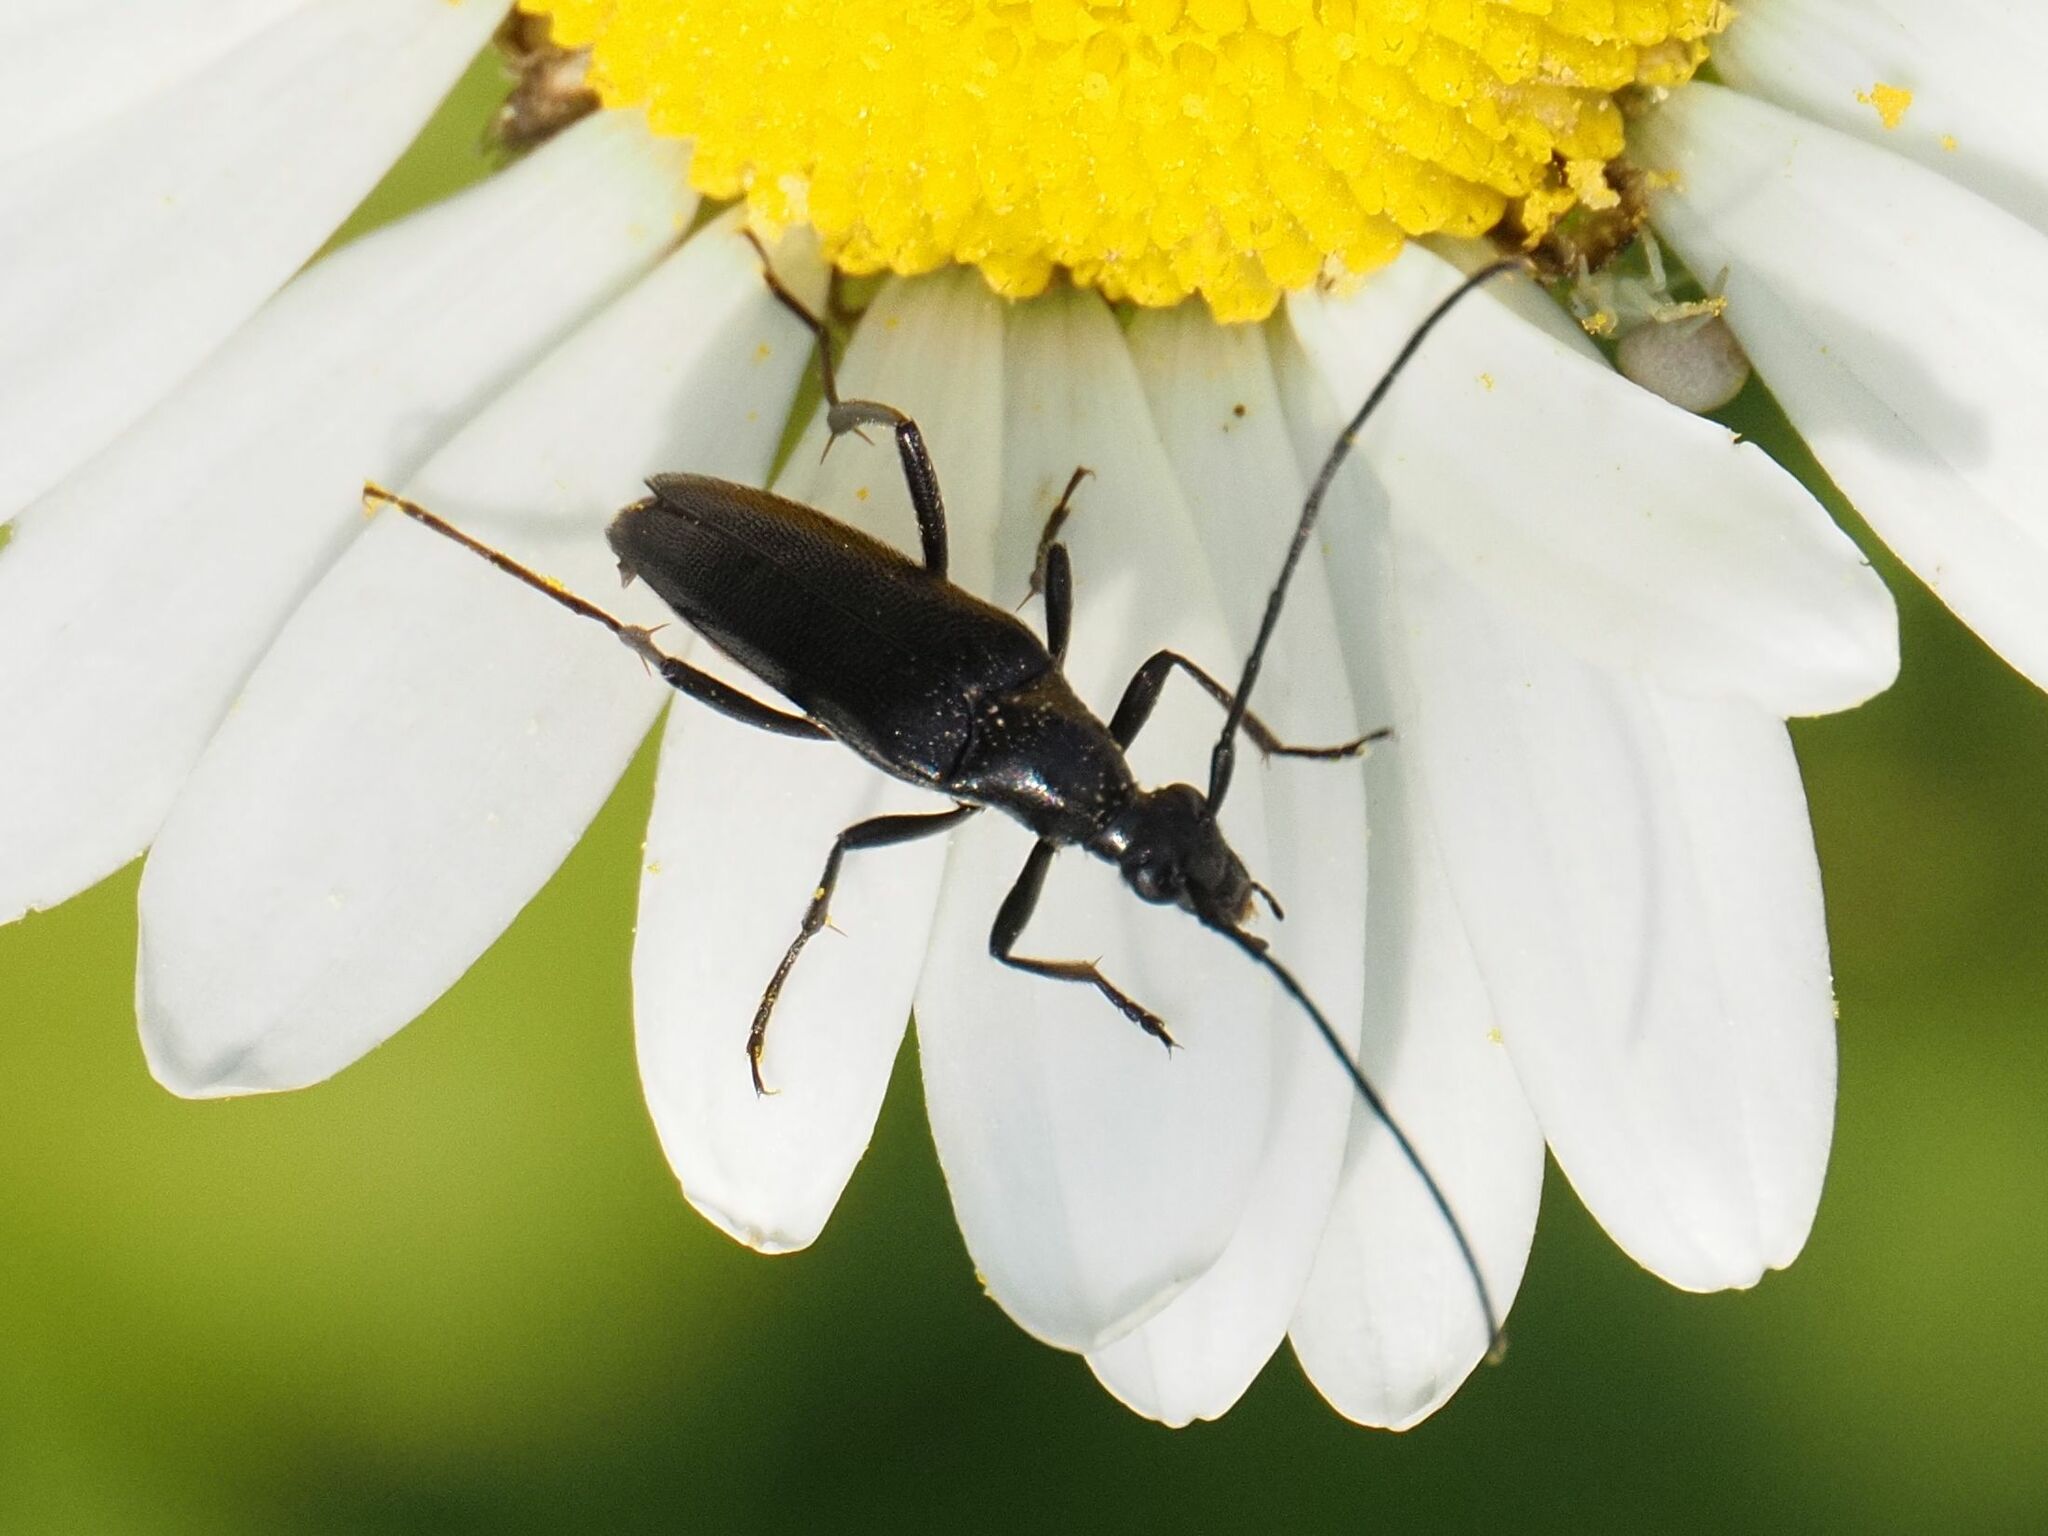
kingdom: Animalia
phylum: Arthropoda
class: Insecta
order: Coleoptera
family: Cerambycidae
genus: Stenurella
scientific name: Stenurella nigra
